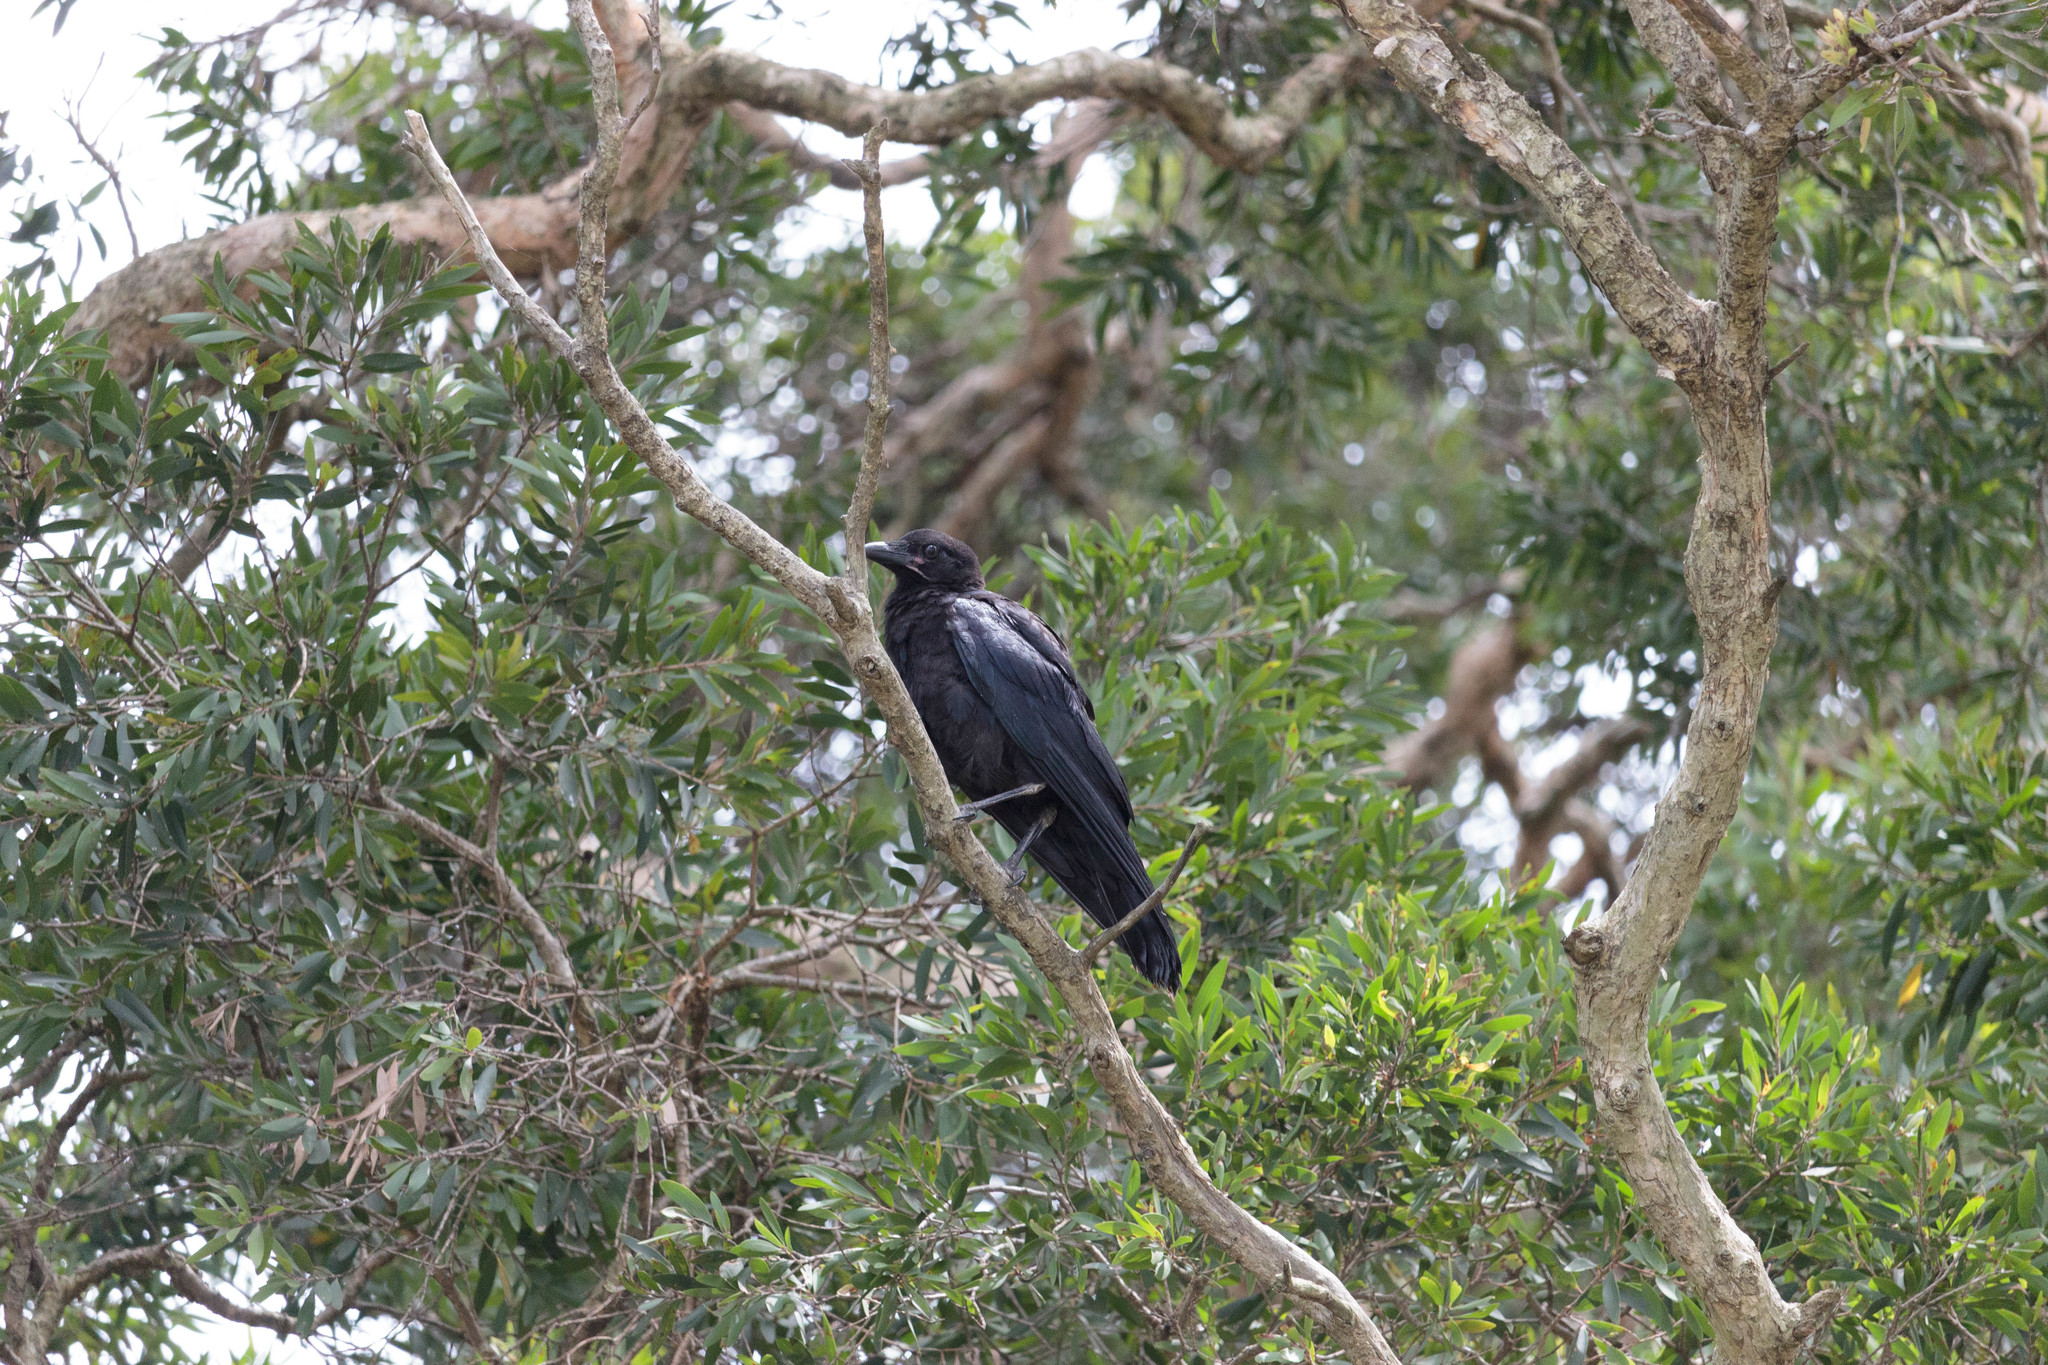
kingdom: Animalia
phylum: Chordata
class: Aves
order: Passeriformes
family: Corvidae
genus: Corvus
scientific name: Corvus coronoides
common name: Australian raven
